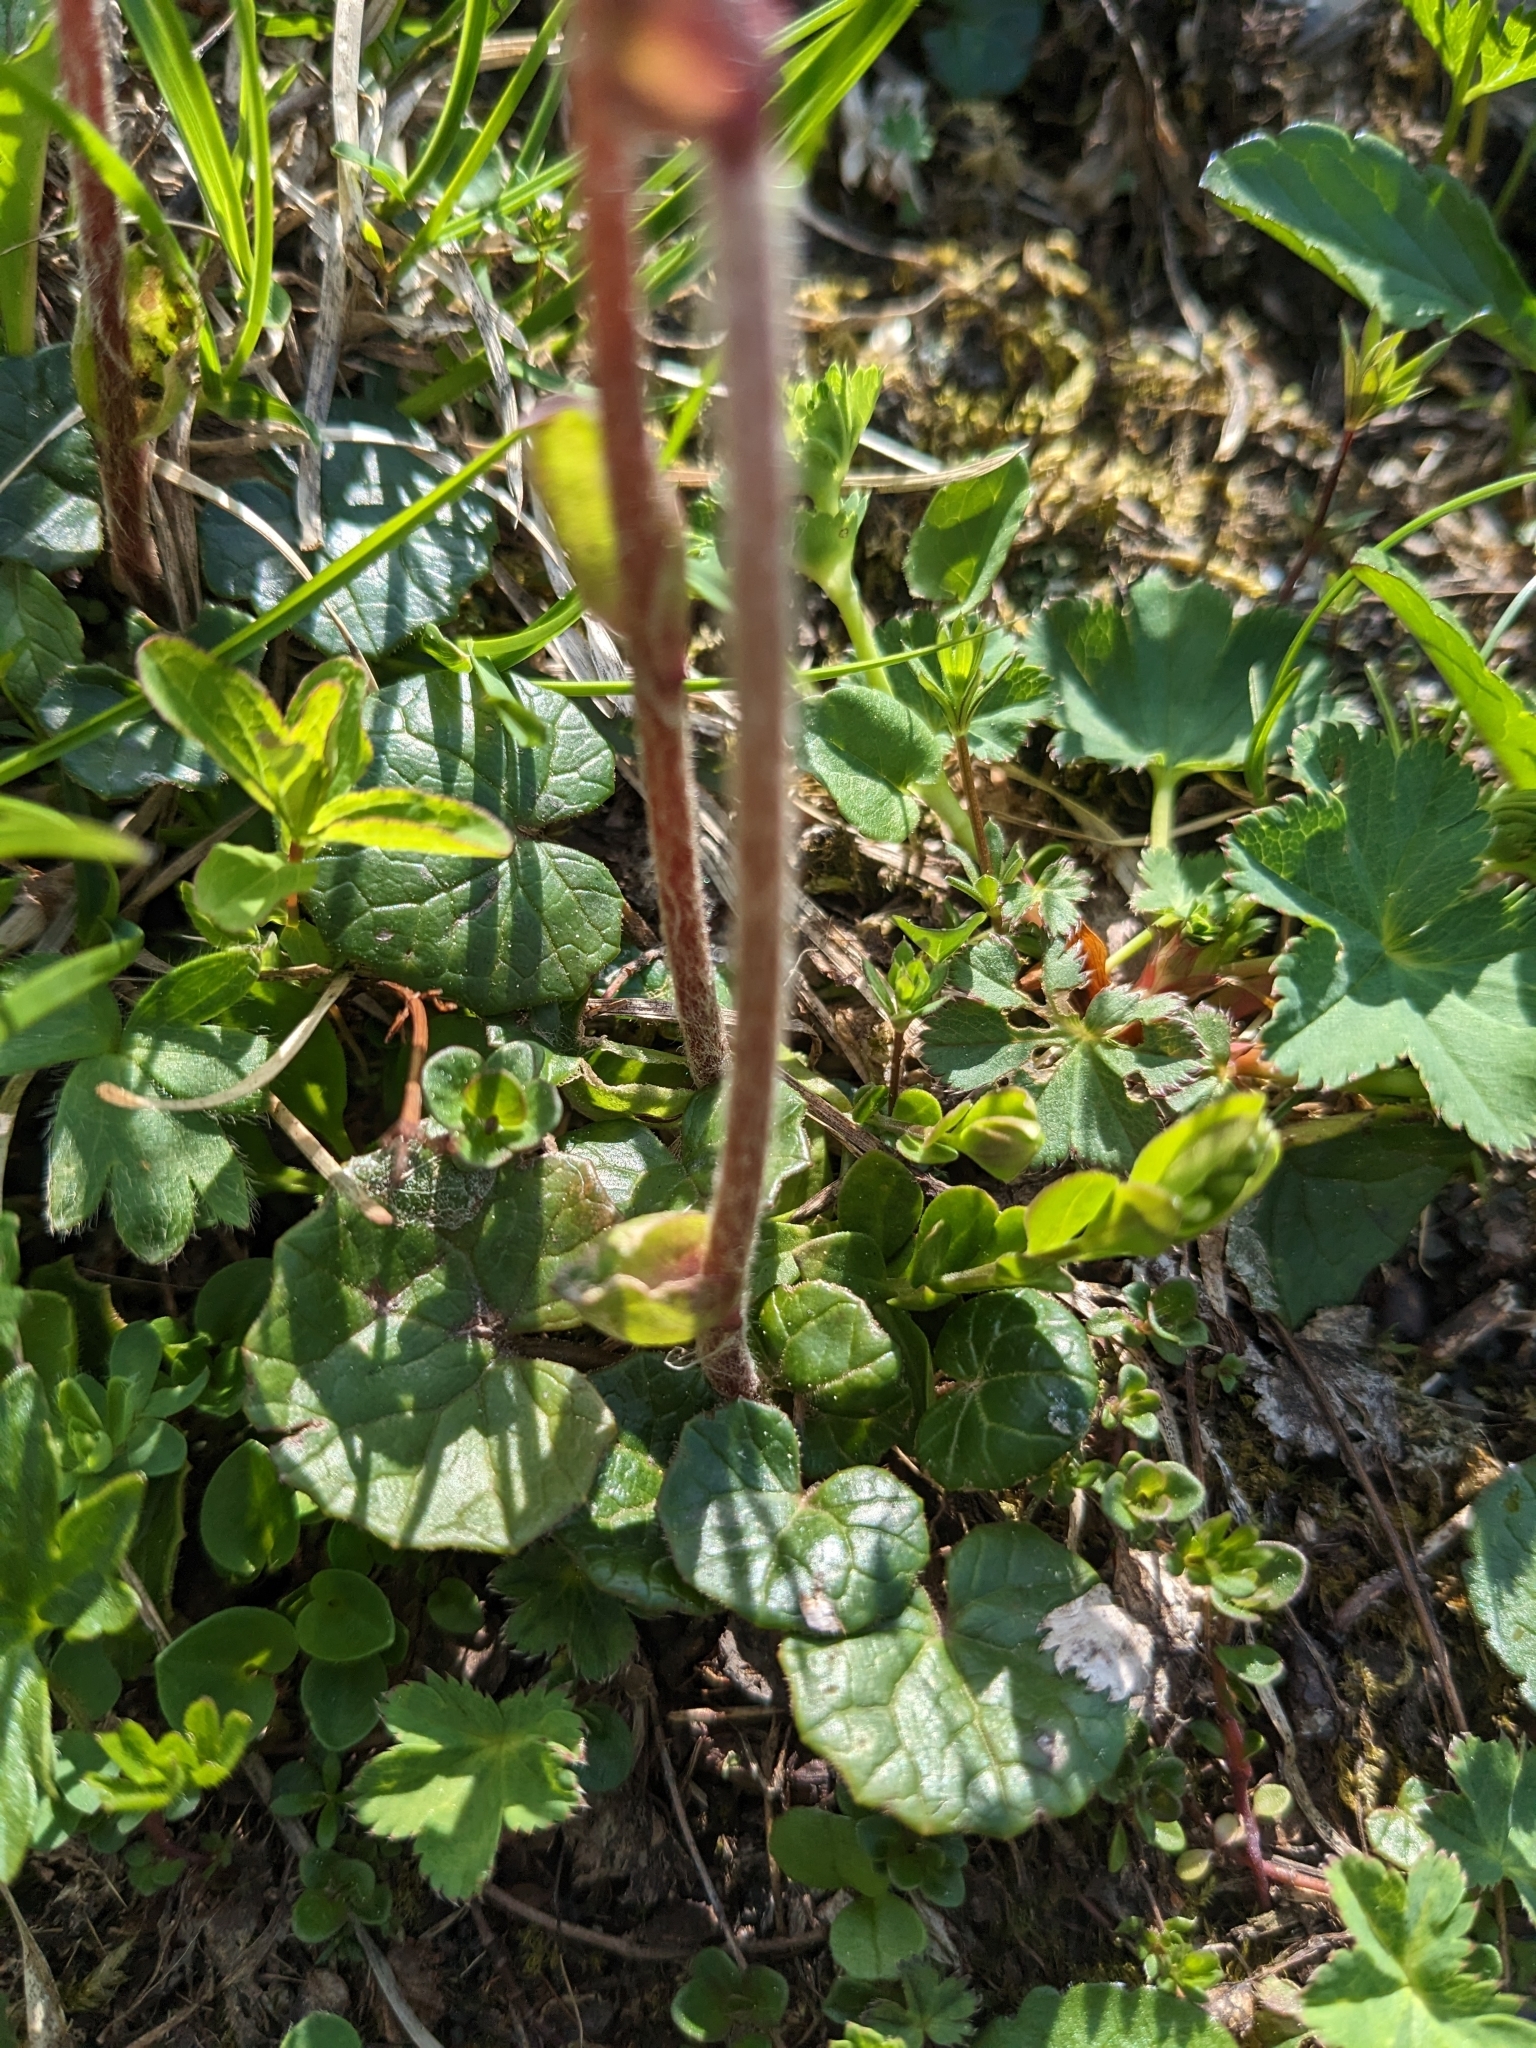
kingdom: Plantae
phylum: Tracheophyta
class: Magnoliopsida
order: Asterales
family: Asteraceae
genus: Homogyne
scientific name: Homogyne alpina
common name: Purple colt's-foot
